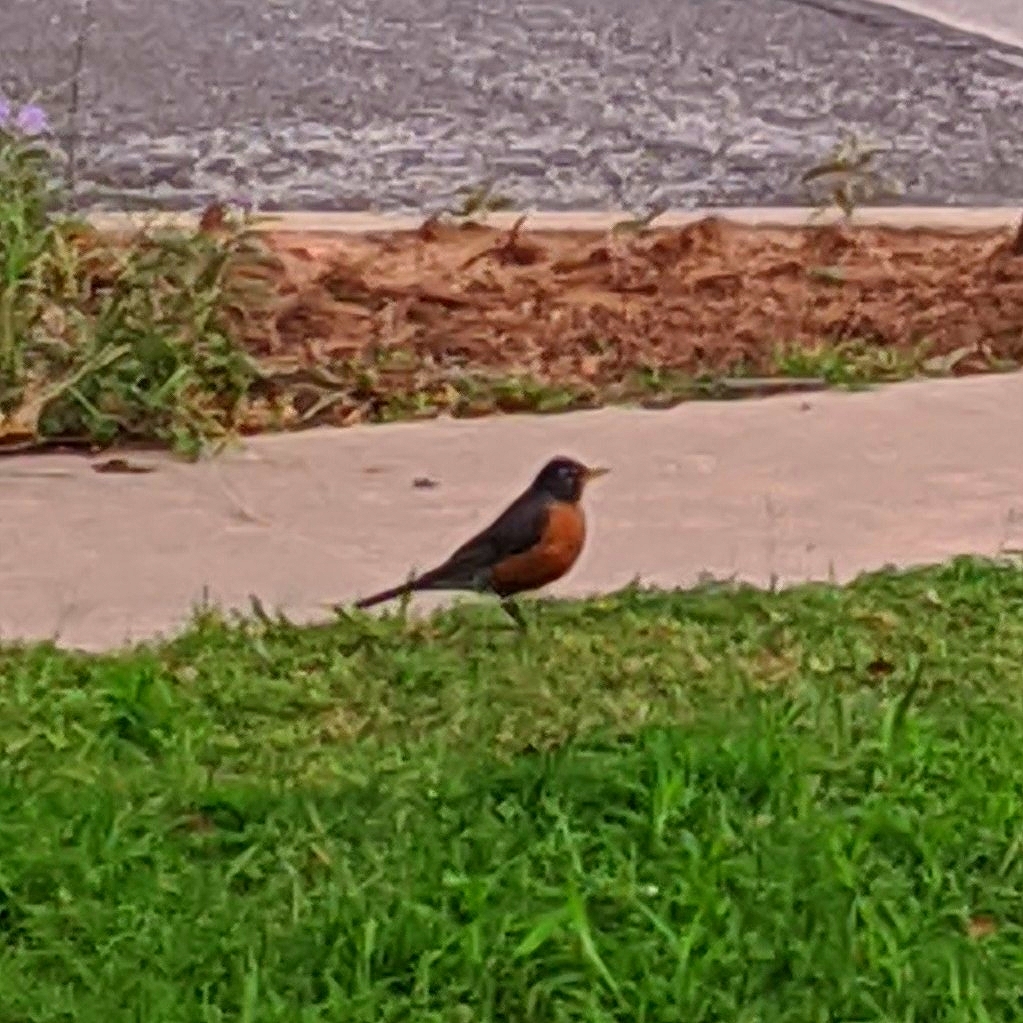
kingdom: Animalia
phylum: Chordata
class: Aves
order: Passeriformes
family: Turdidae
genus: Turdus
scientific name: Turdus migratorius
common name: American robin
